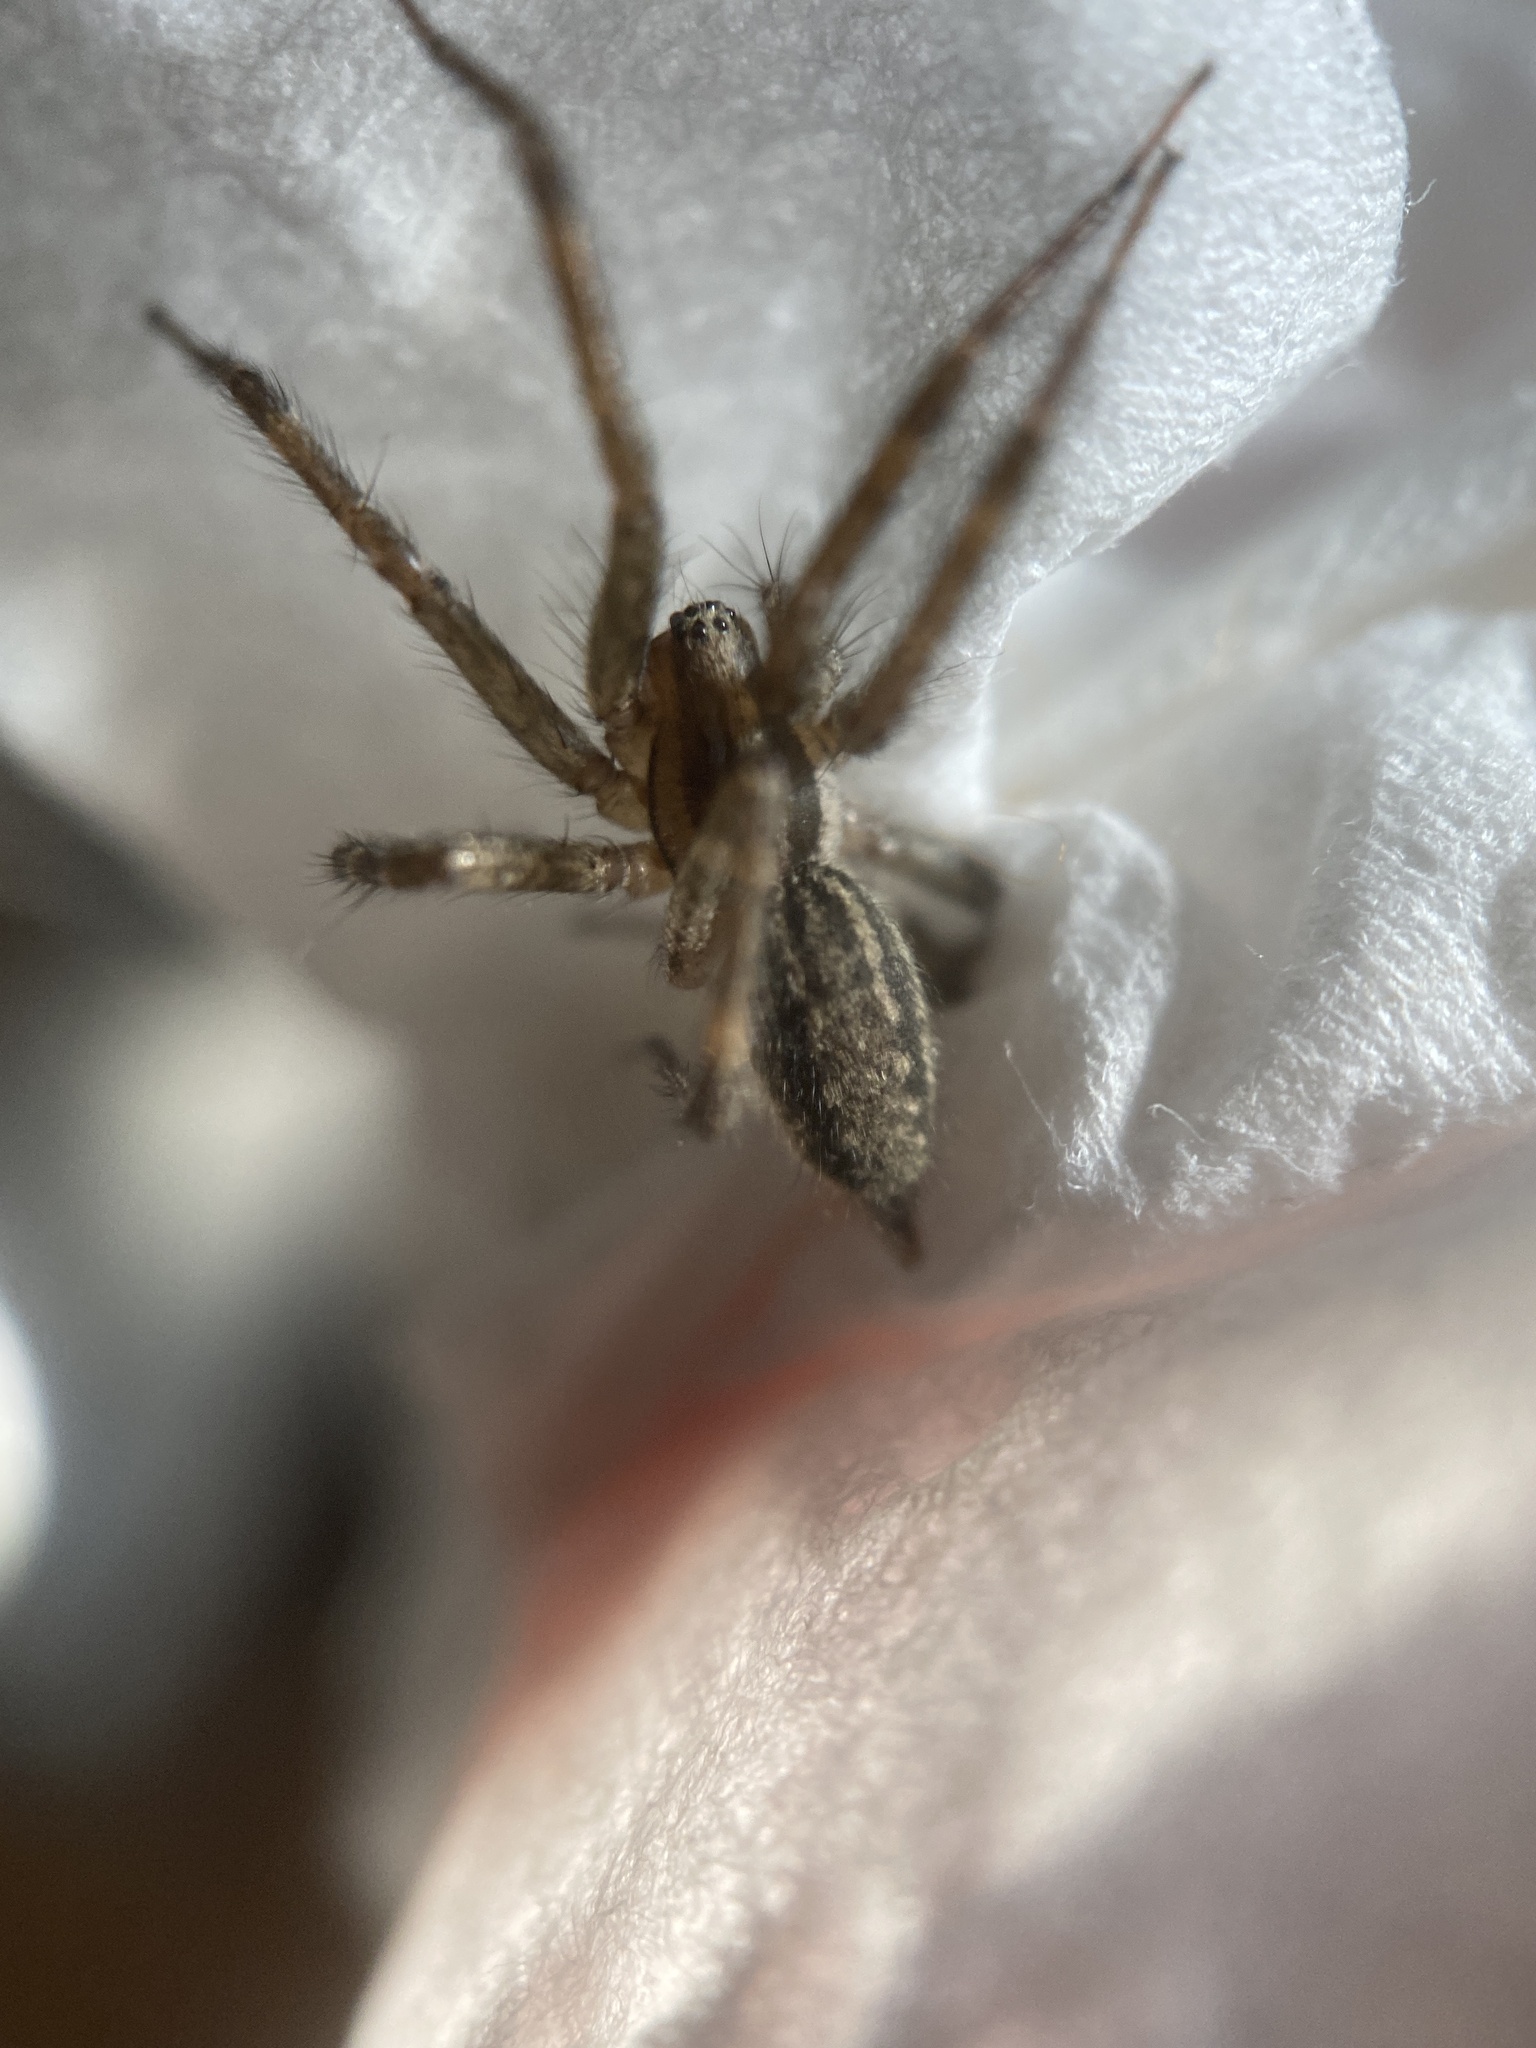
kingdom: Animalia
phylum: Arthropoda
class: Arachnida
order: Araneae
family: Agelenidae
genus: Agelenopsis
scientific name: Agelenopsis
